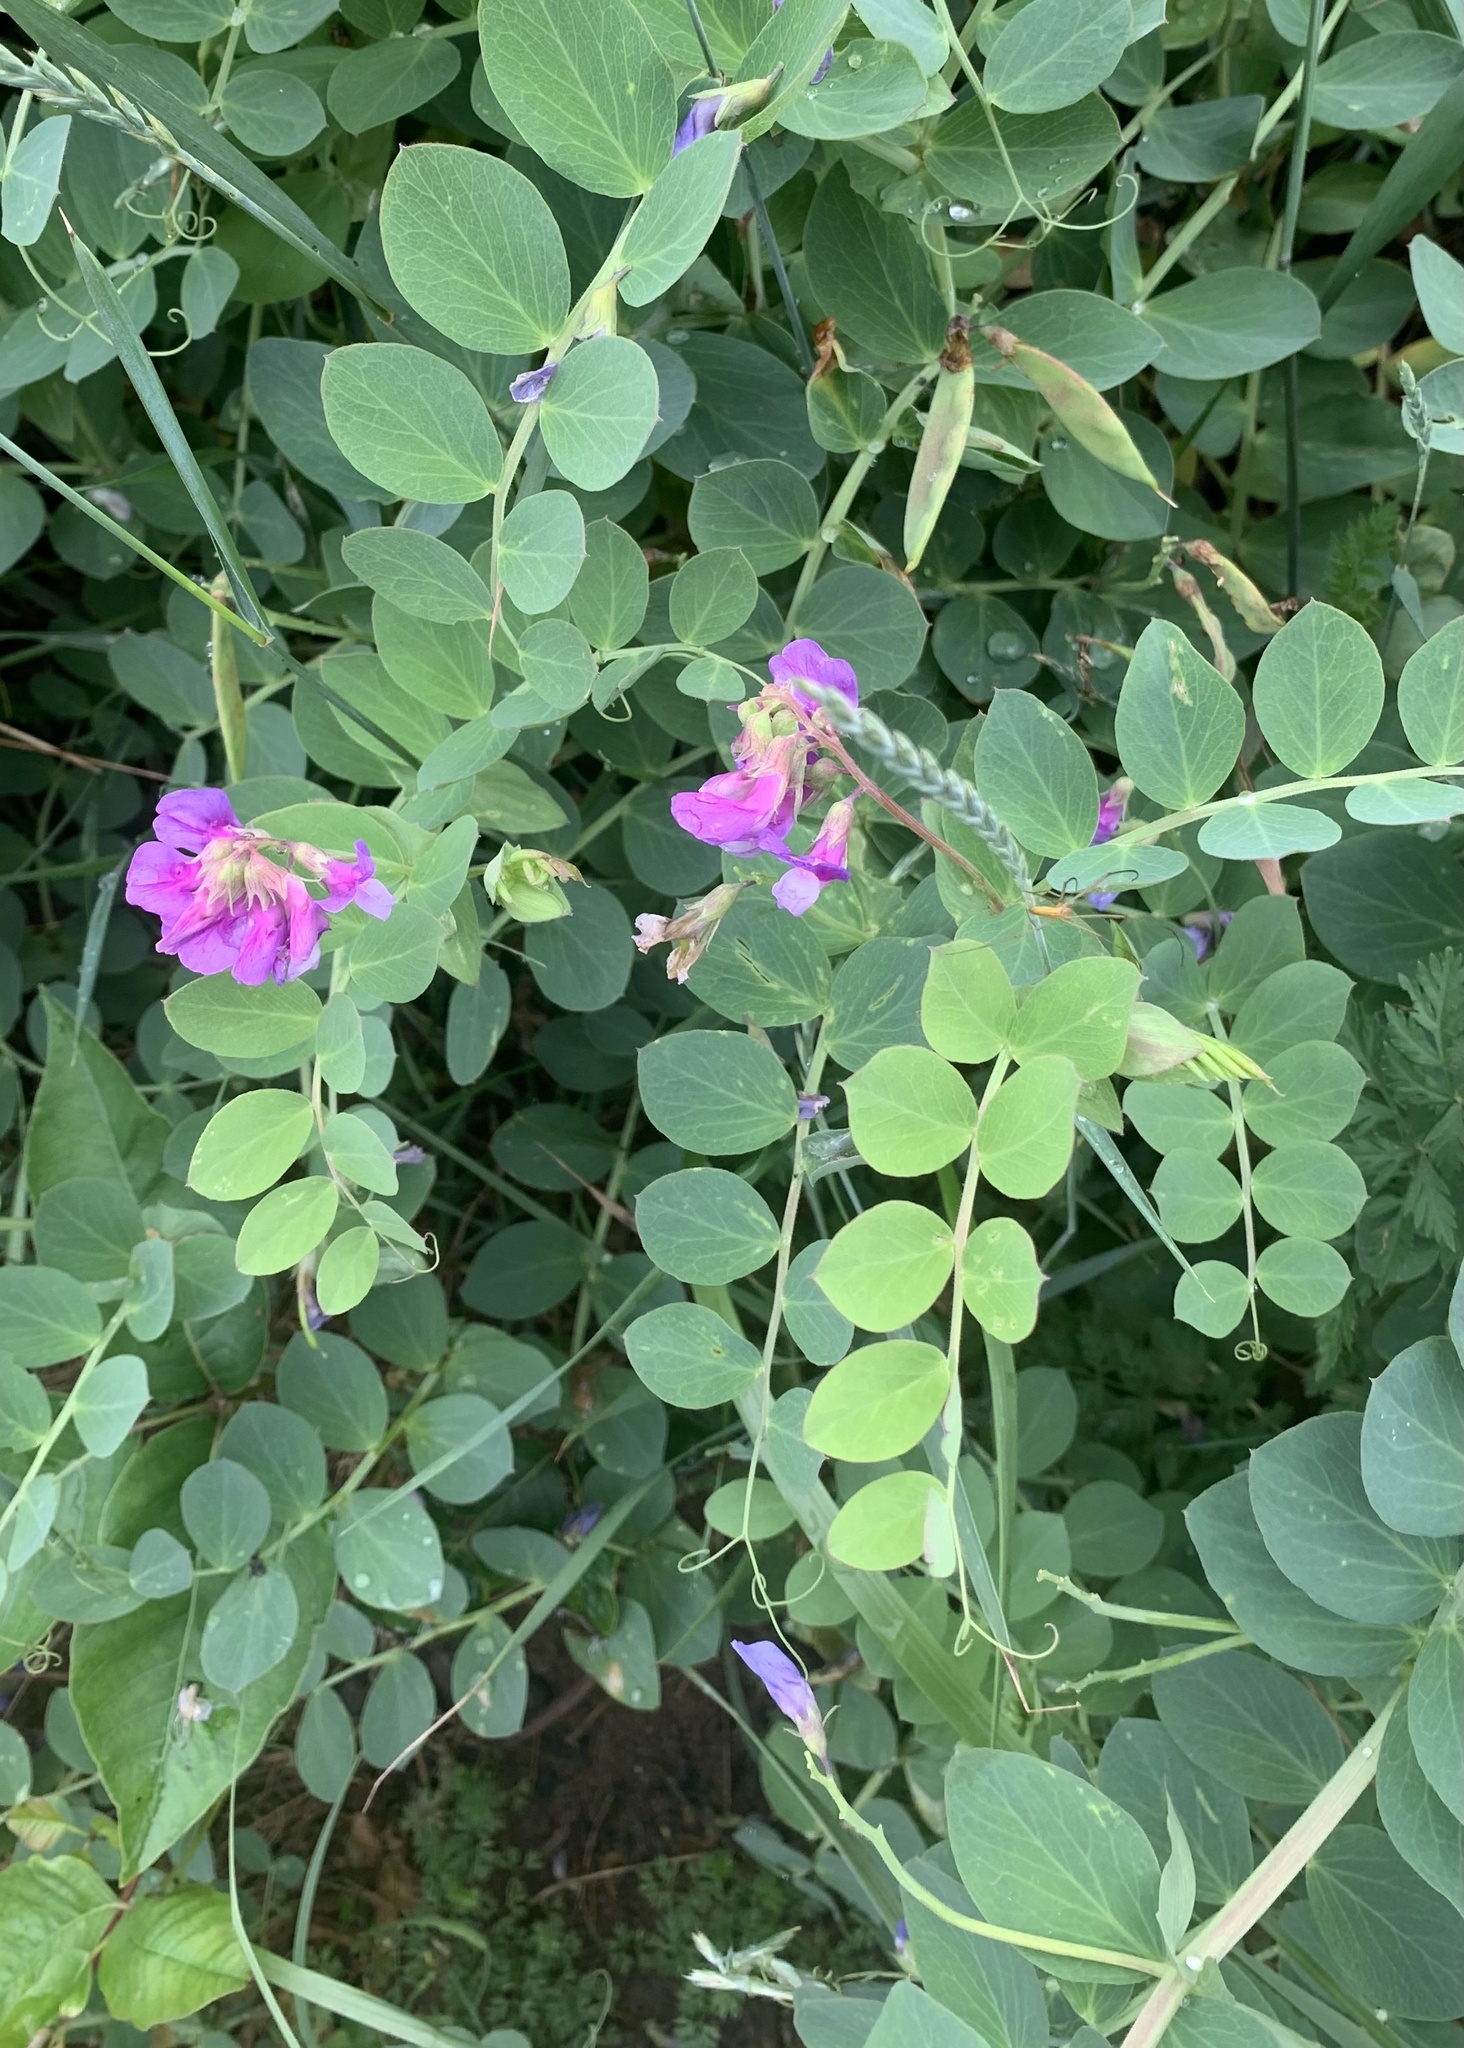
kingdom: Plantae
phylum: Tracheophyta
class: Magnoliopsida
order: Fabales
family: Fabaceae
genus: Lathyrus
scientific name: Lathyrus japonicus
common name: Sea pea
